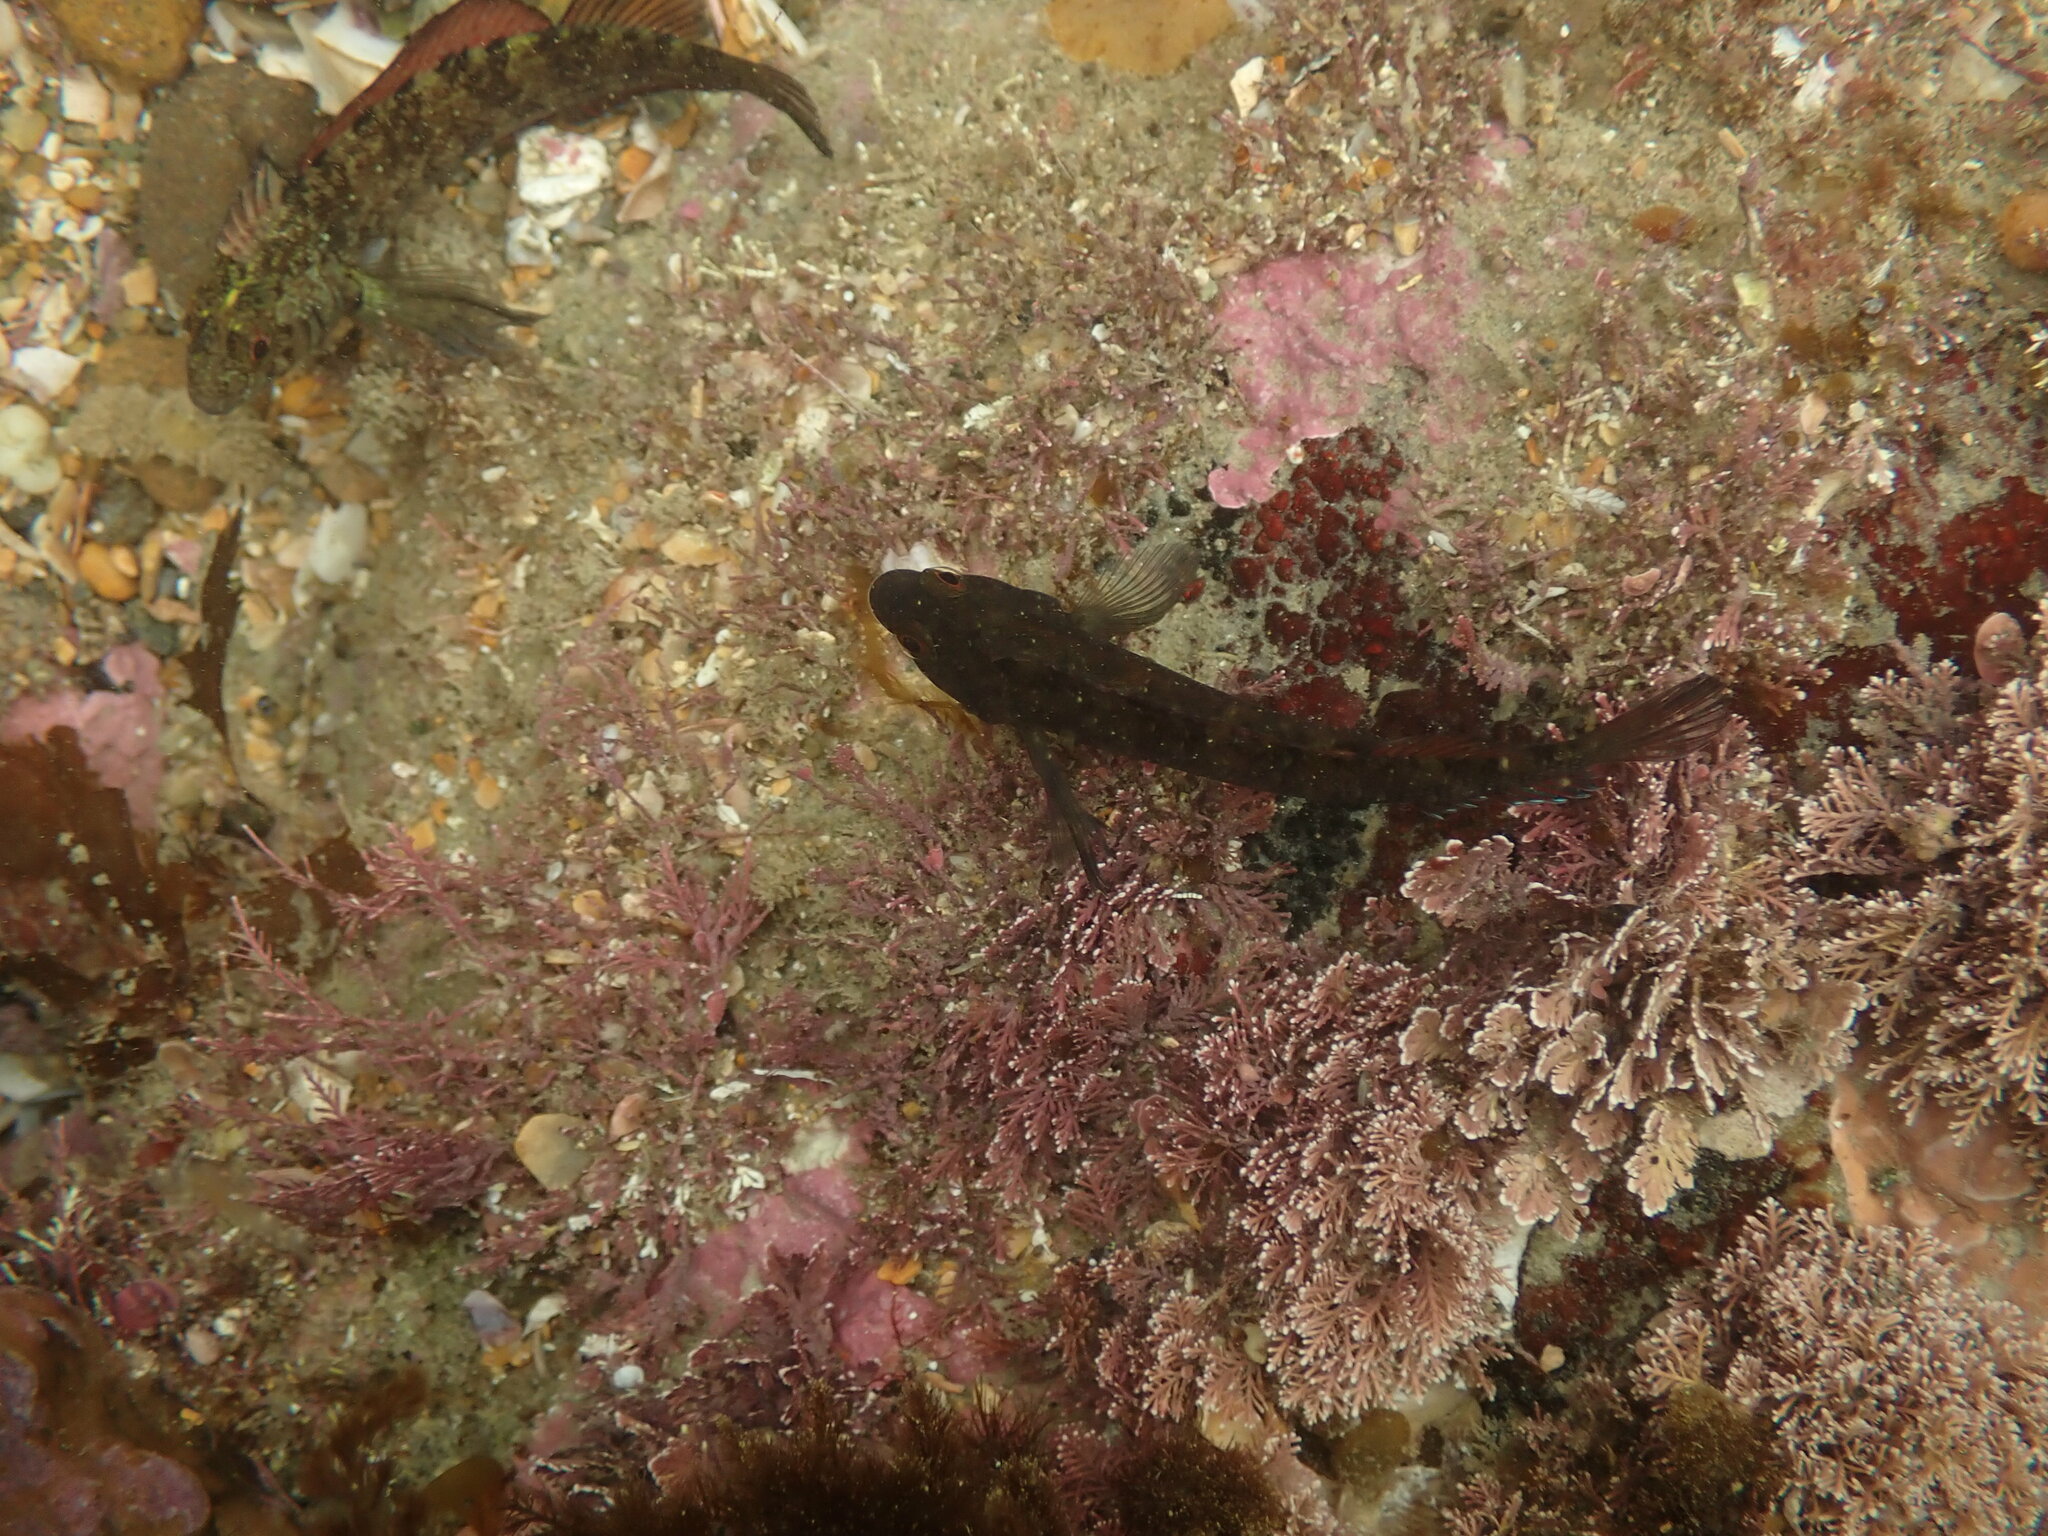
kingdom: Animalia
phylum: Chordata
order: Perciformes
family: Tripterygiidae
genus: Forsterygion
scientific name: Forsterygion lapillum
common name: Common triplefin
